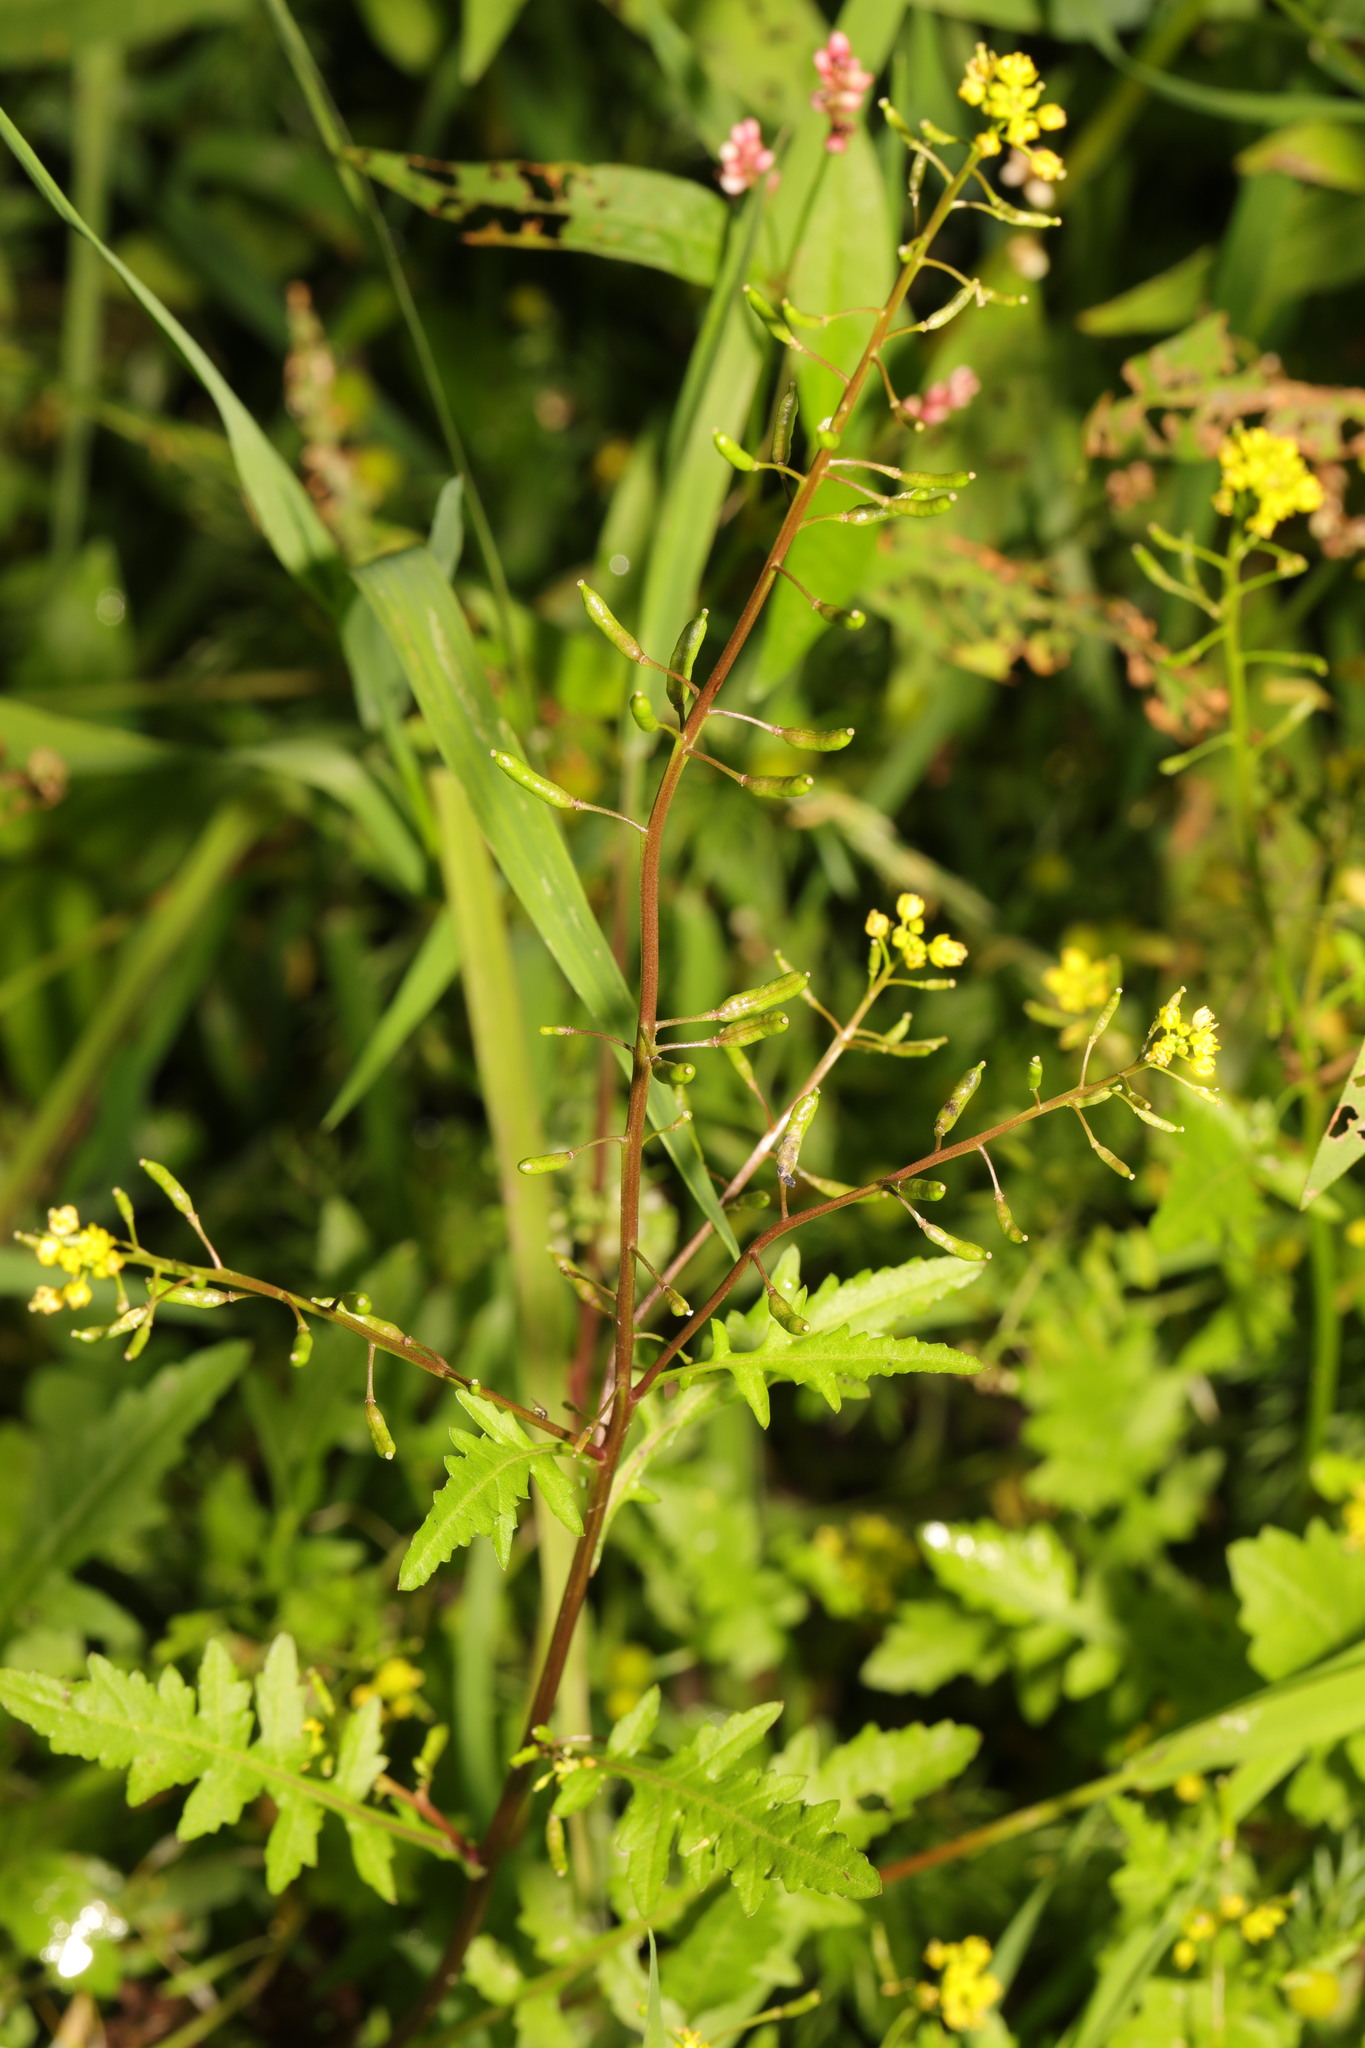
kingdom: Plantae
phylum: Tracheophyta
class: Magnoliopsida
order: Brassicales
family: Brassicaceae
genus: Rorippa
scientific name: Rorippa palustris
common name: Marsh yellow-cress
